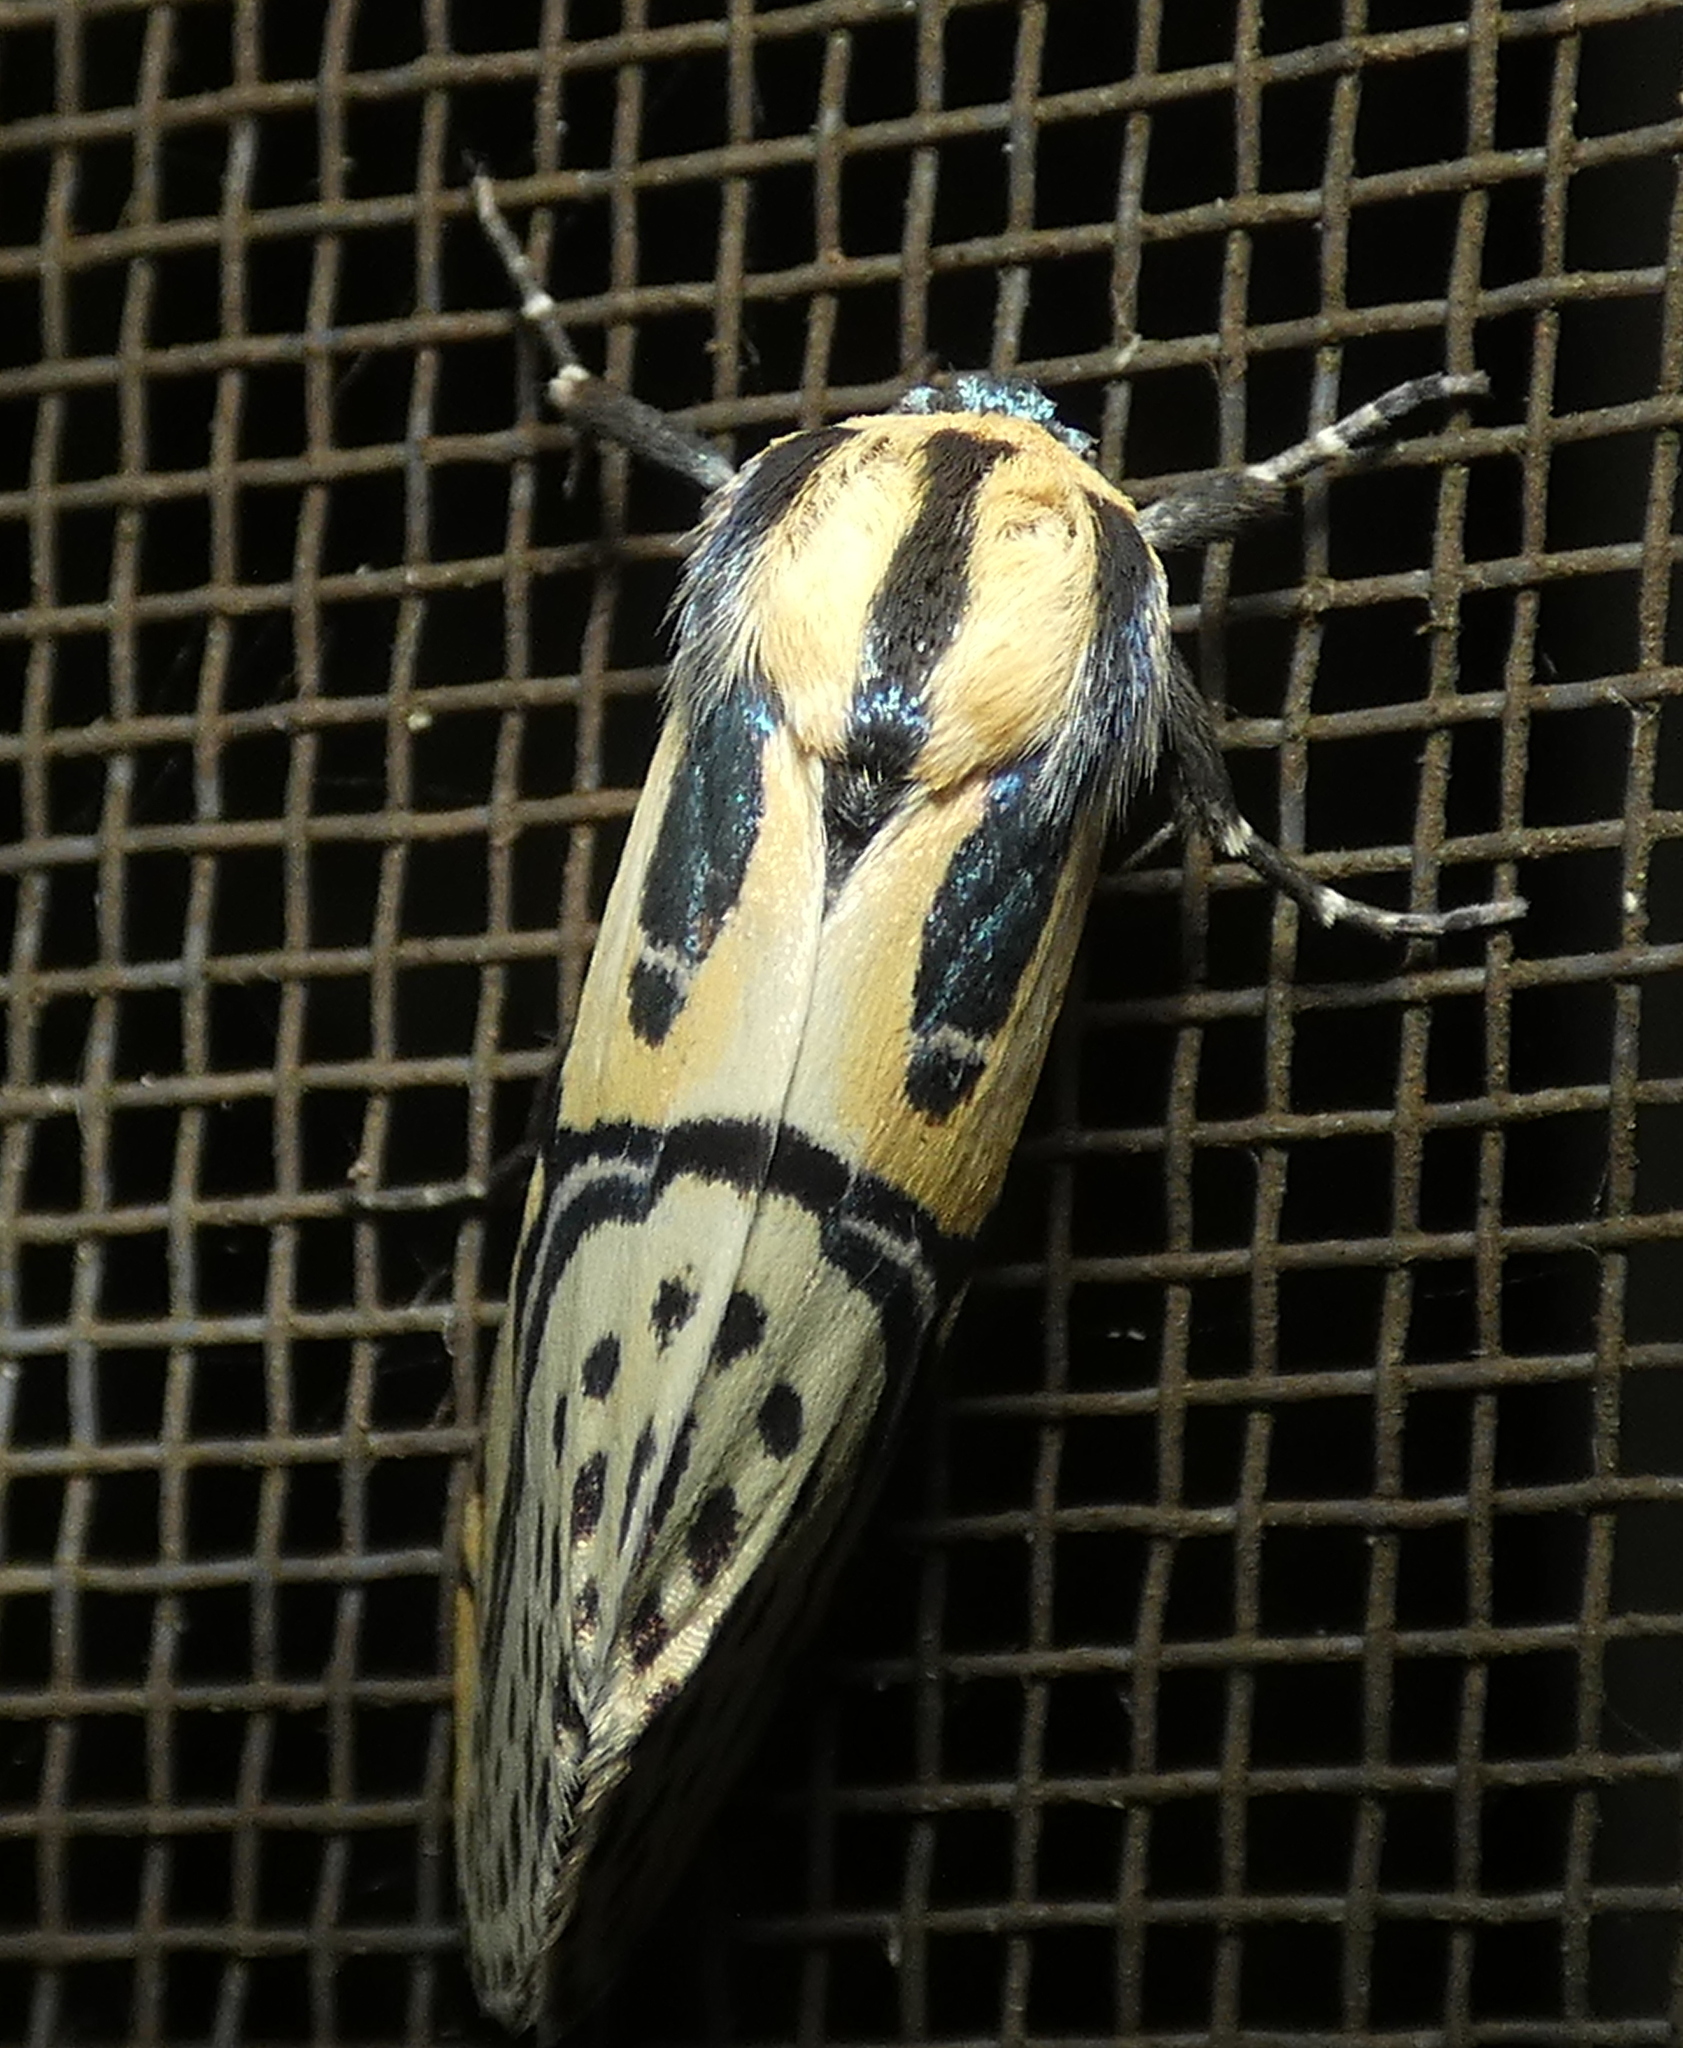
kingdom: Animalia
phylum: Arthropoda
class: Insecta
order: Lepidoptera
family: Erebidae
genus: Diphthera
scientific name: Diphthera festiva
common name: Hieroglyphic moth
